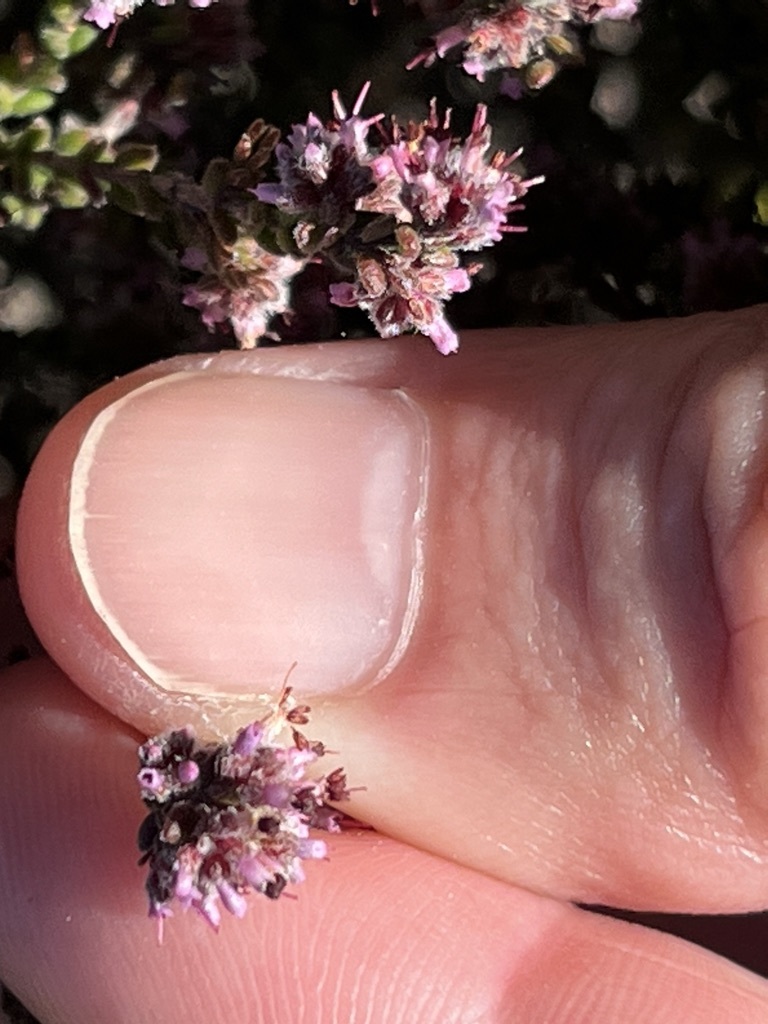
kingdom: Plantae
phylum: Tracheophyta
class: Magnoliopsida
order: Ericales
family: Ericaceae
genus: Erica
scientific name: Erica radicans
